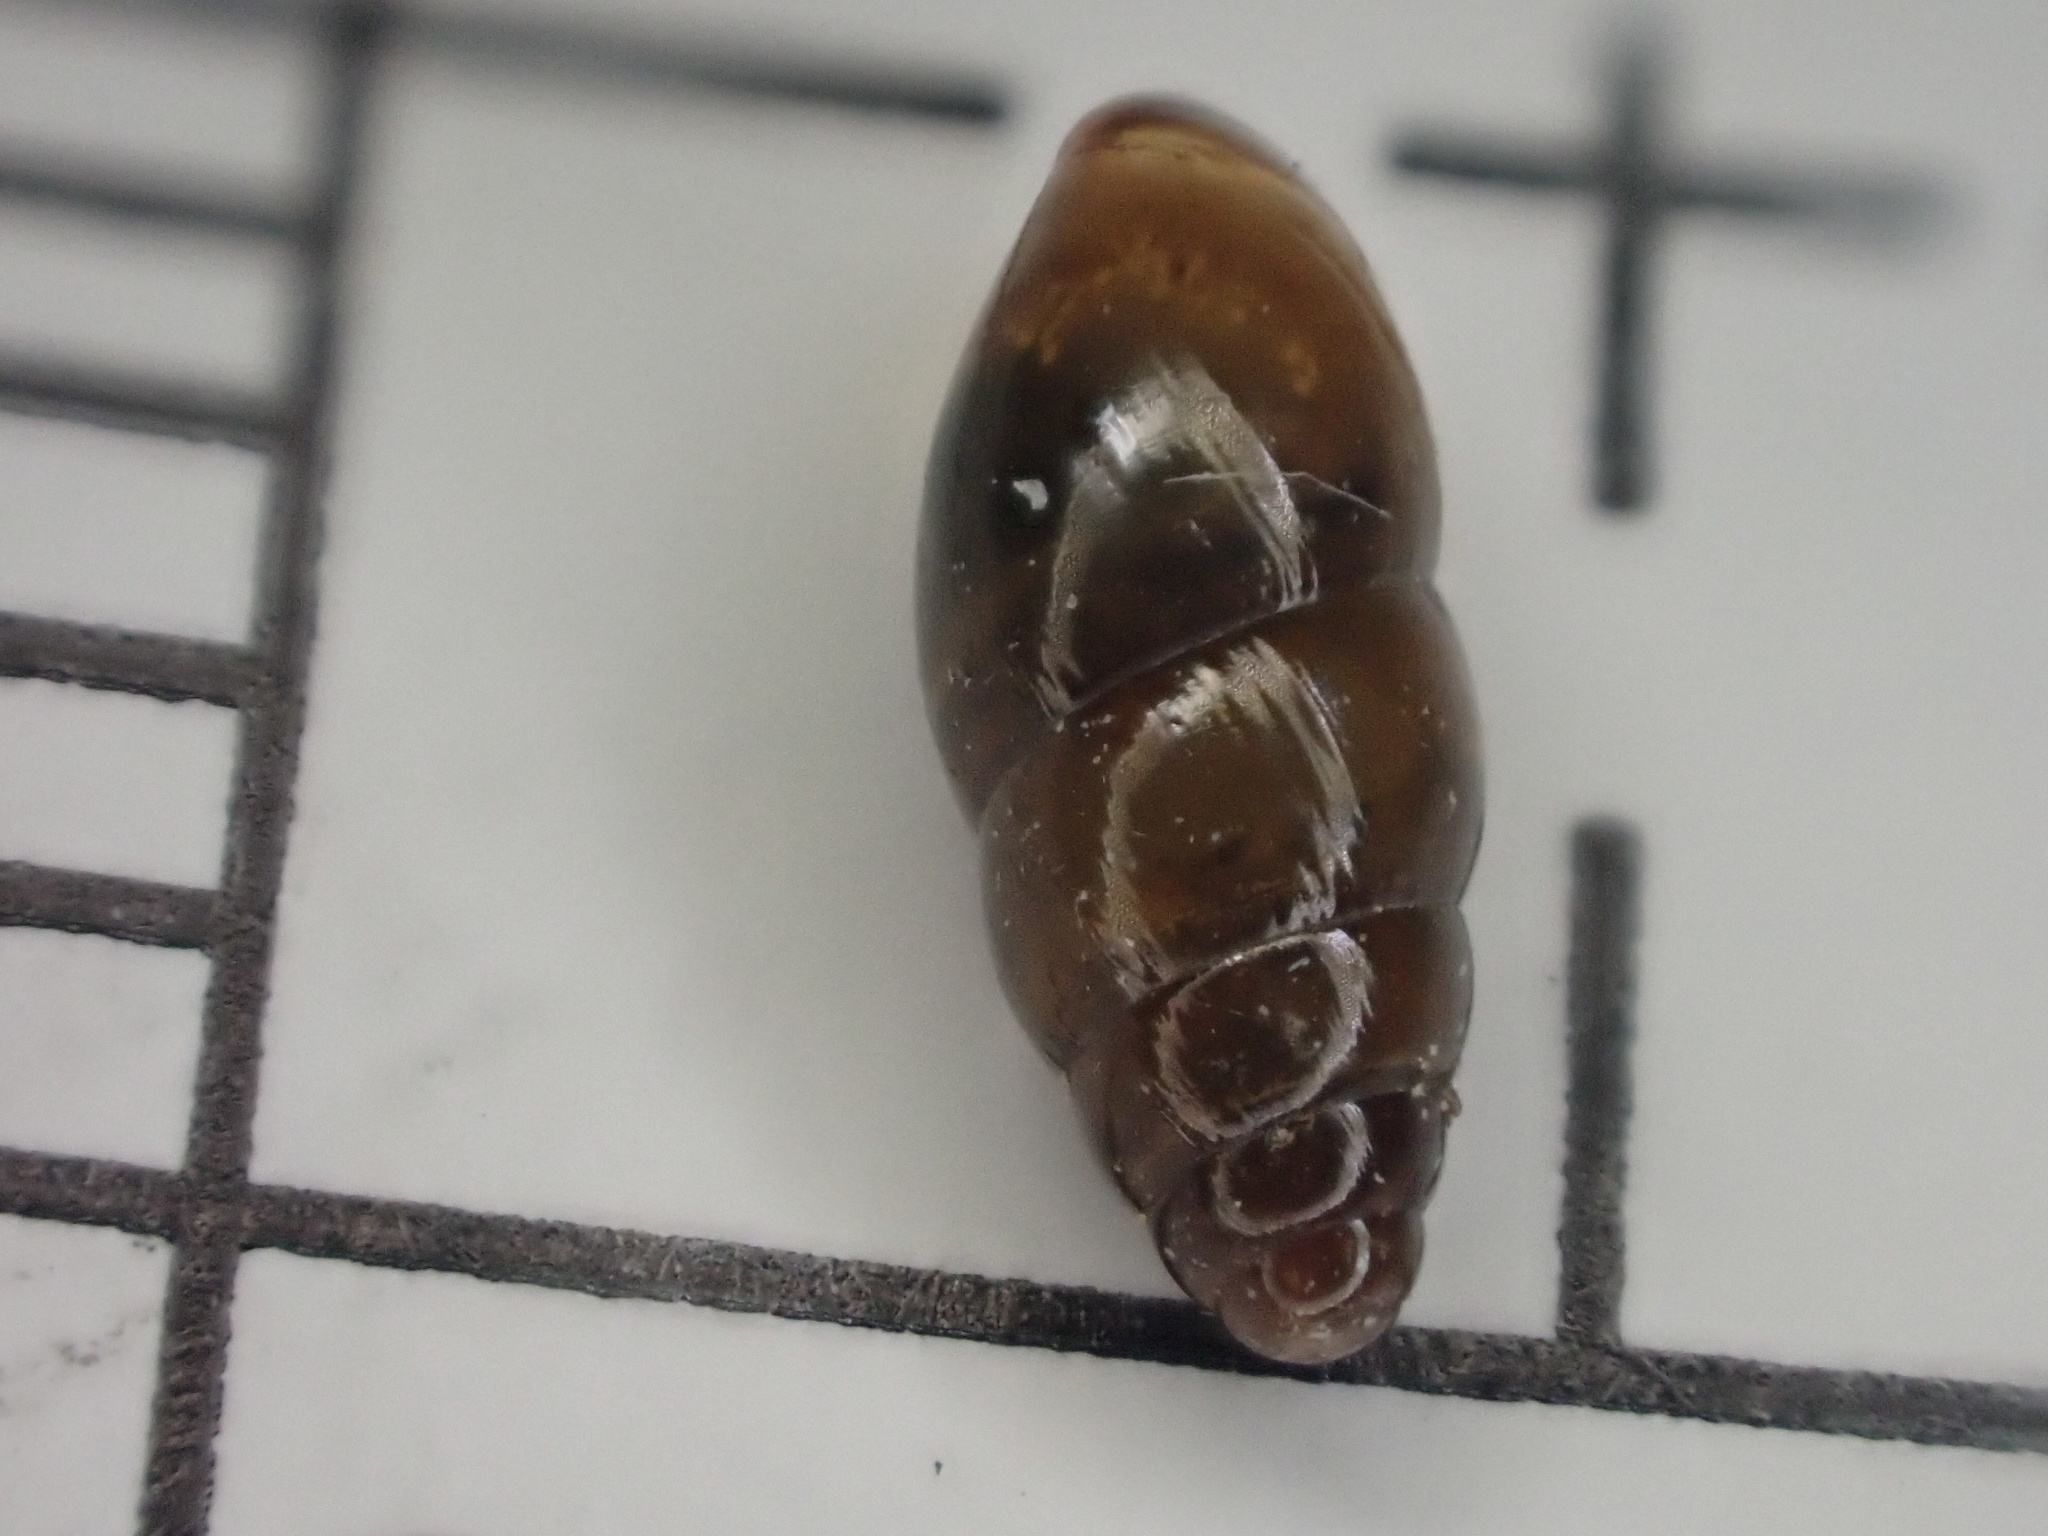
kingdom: Animalia
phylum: Mollusca
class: Gastropoda
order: Stylommatophora
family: Cochlicopidae
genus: Cochlicopa
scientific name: Cochlicopa lubrica
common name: Glossy pillar snail
